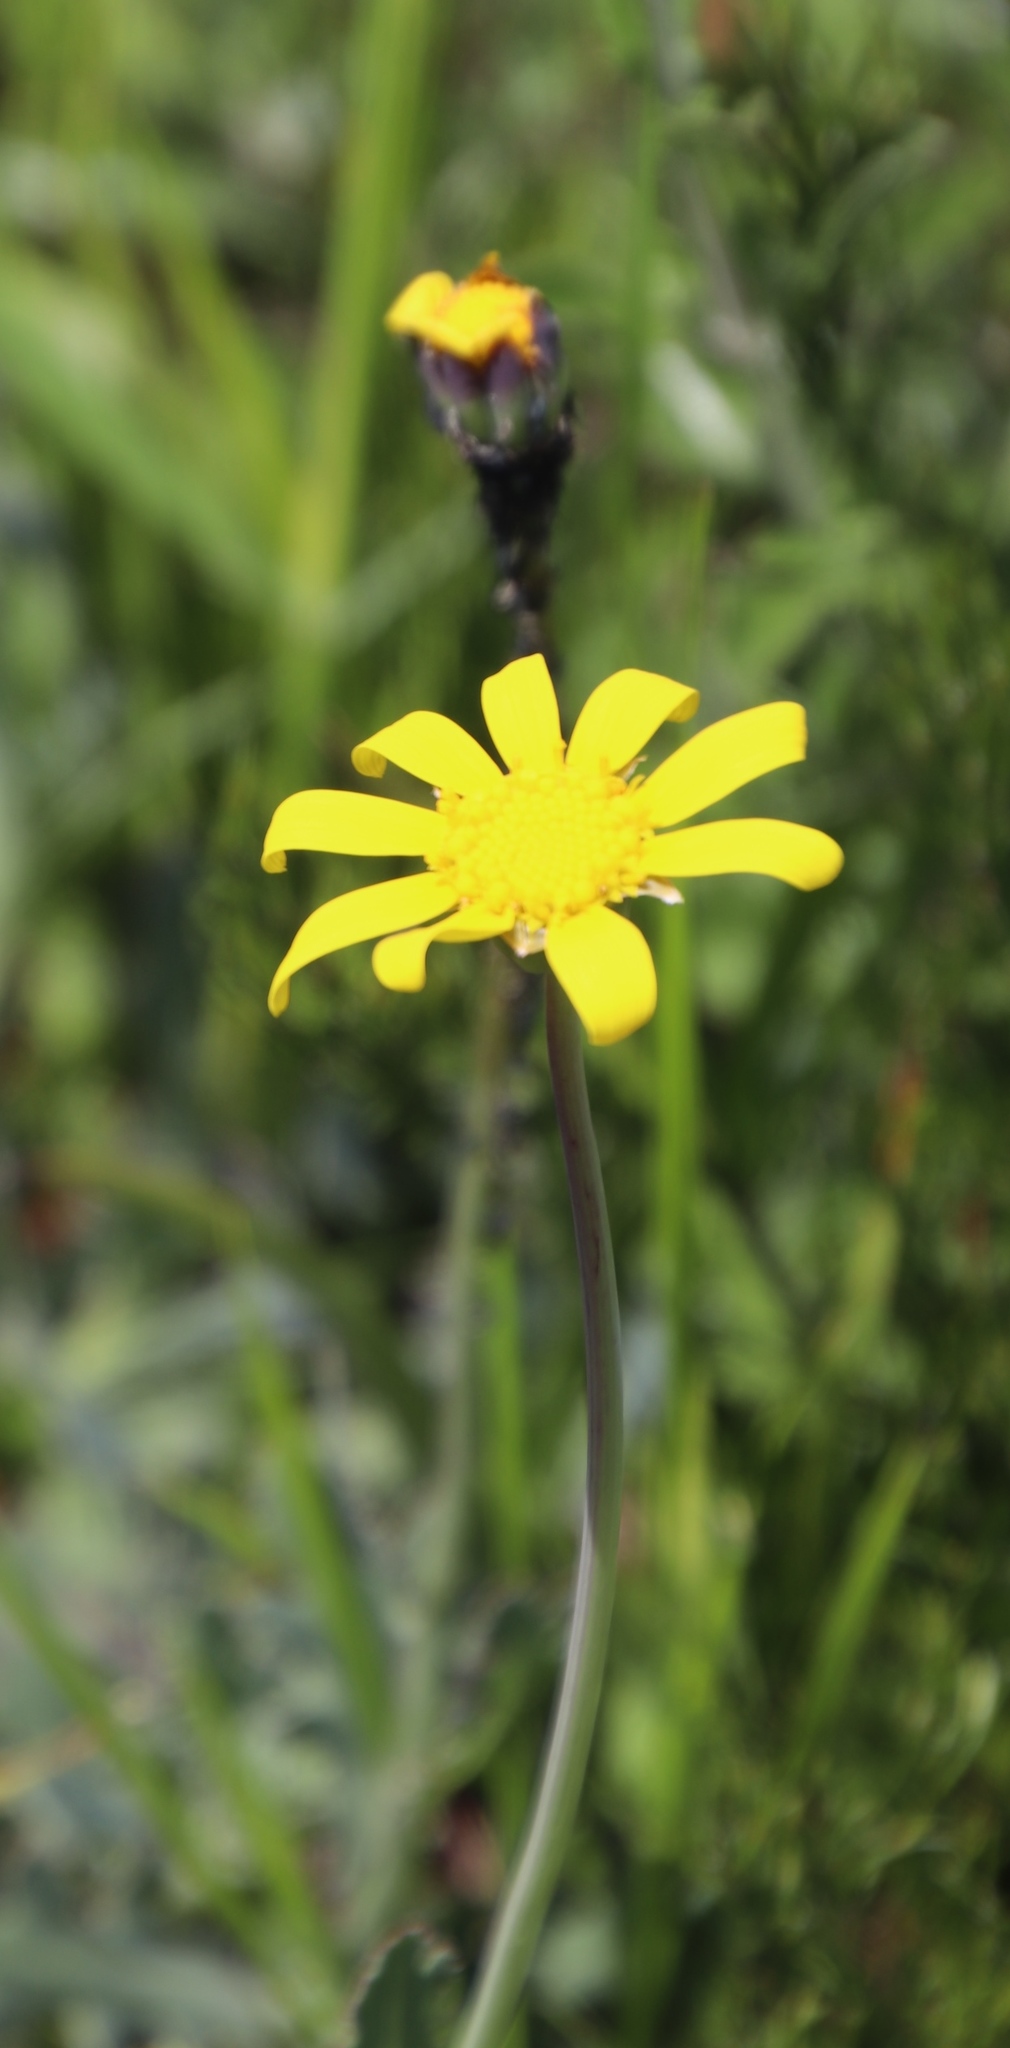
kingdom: Plantae
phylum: Tracheophyta
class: Magnoliopsida
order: Asterales
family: Asteraceae
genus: Othonna
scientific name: Othonna ciliata
